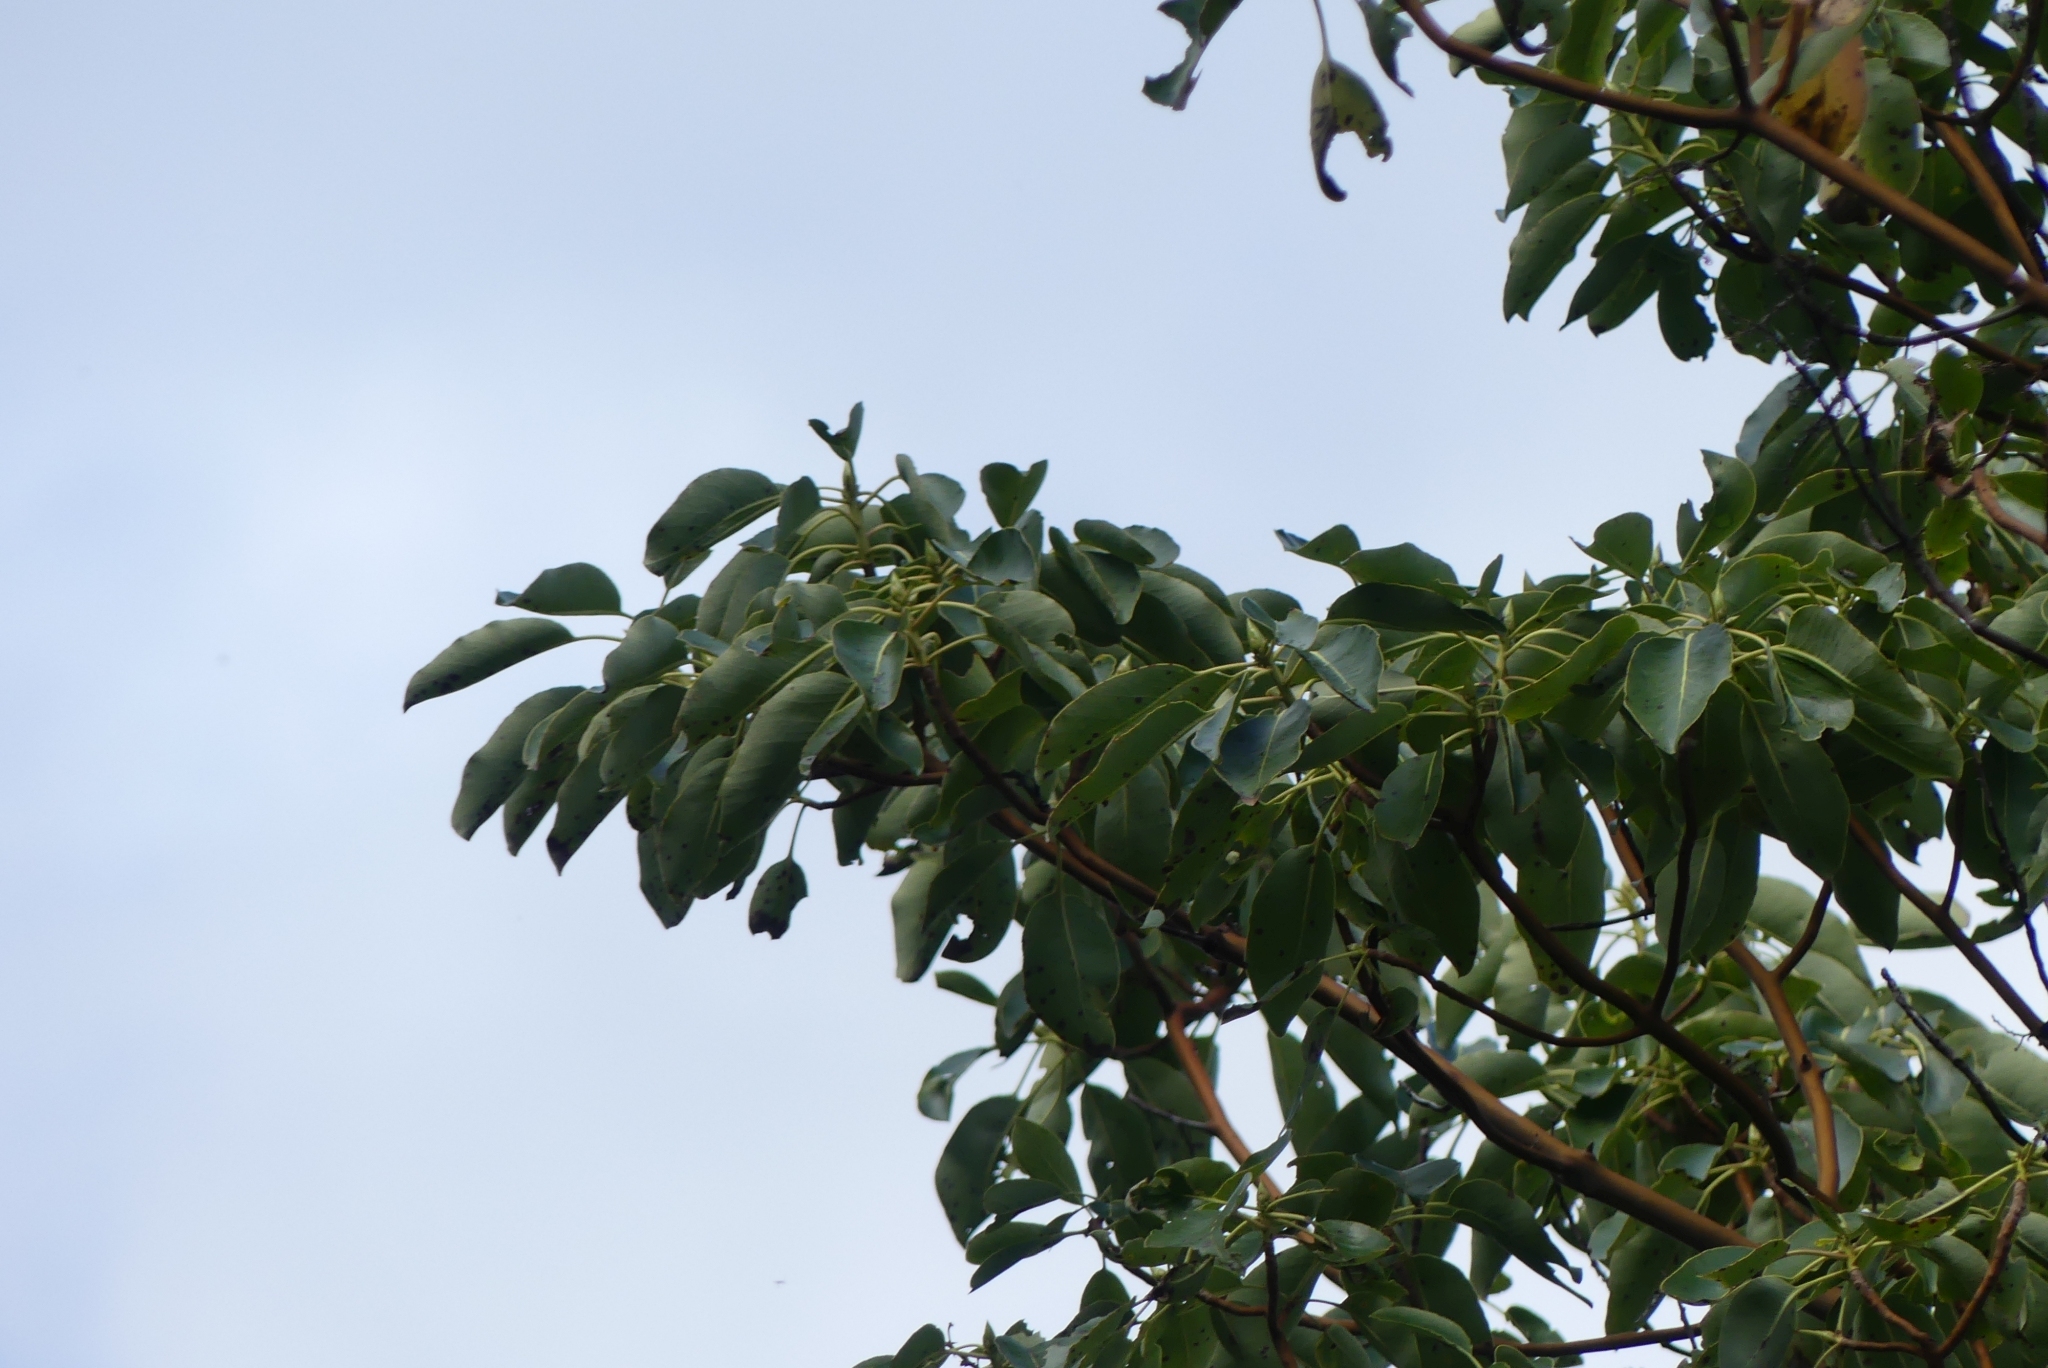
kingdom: Plantae
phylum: Tracheophyta
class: Magnoliopsida
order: Ericales
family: Ericaceae
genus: Arbutus
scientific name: Arbutus menziesii
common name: Pacific madrone
